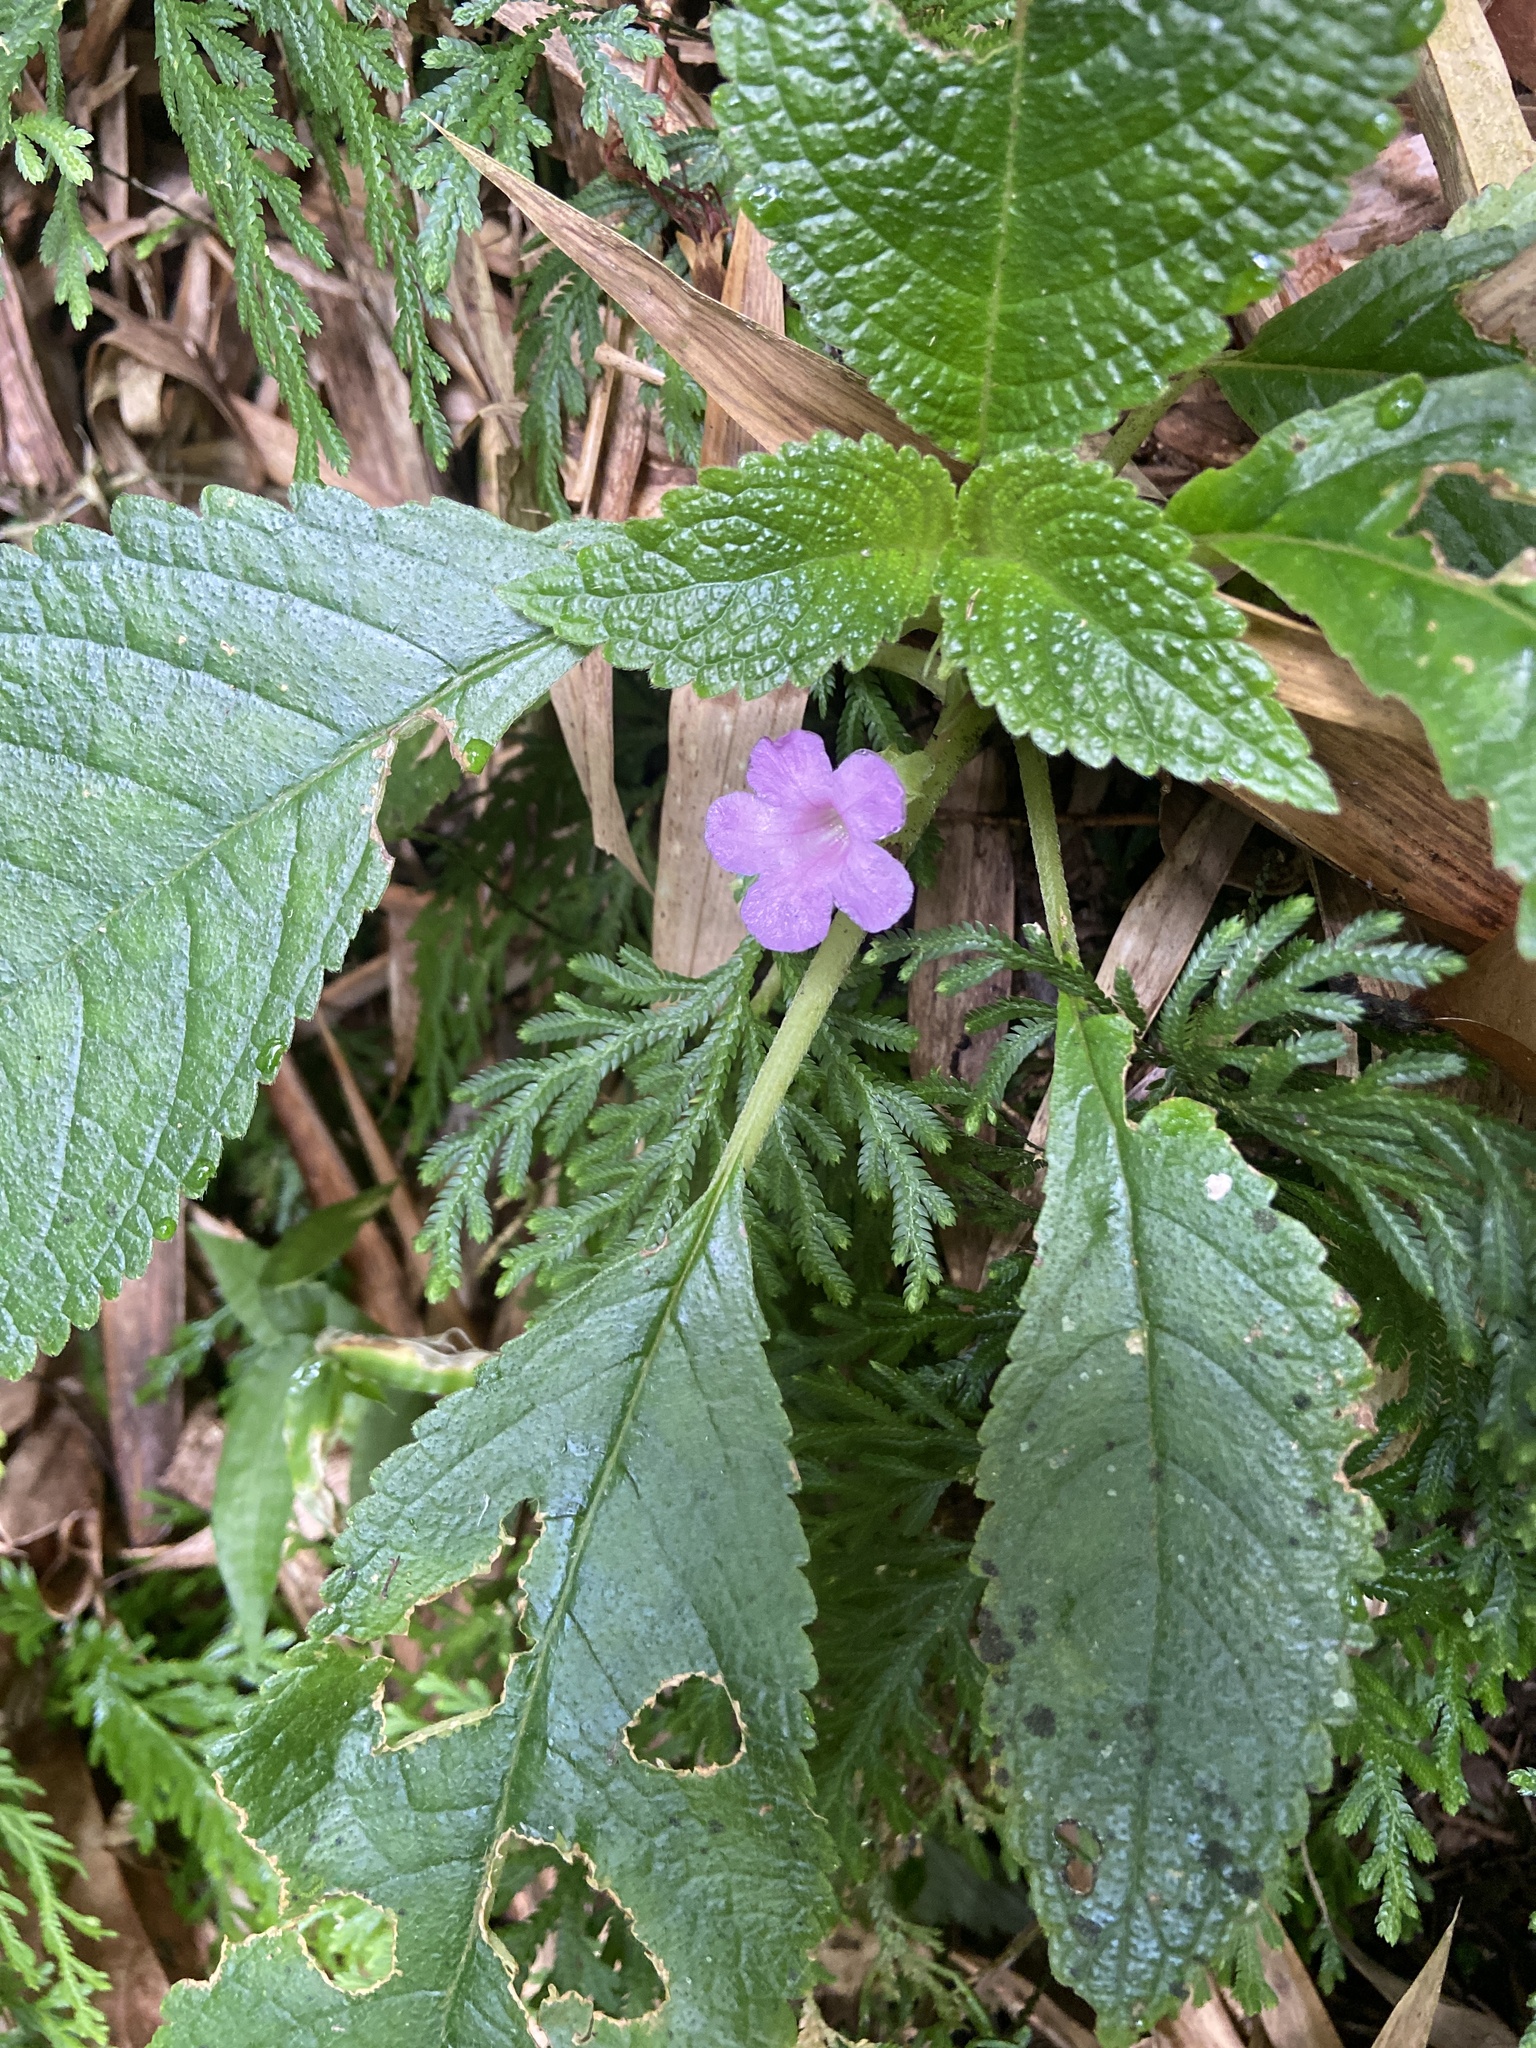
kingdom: Plantae
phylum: Tracheophyta
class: Magnoliopsida
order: Lamiales
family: Gesneriaceae
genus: Chrysothemis
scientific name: Chrysothemis melittifolia
